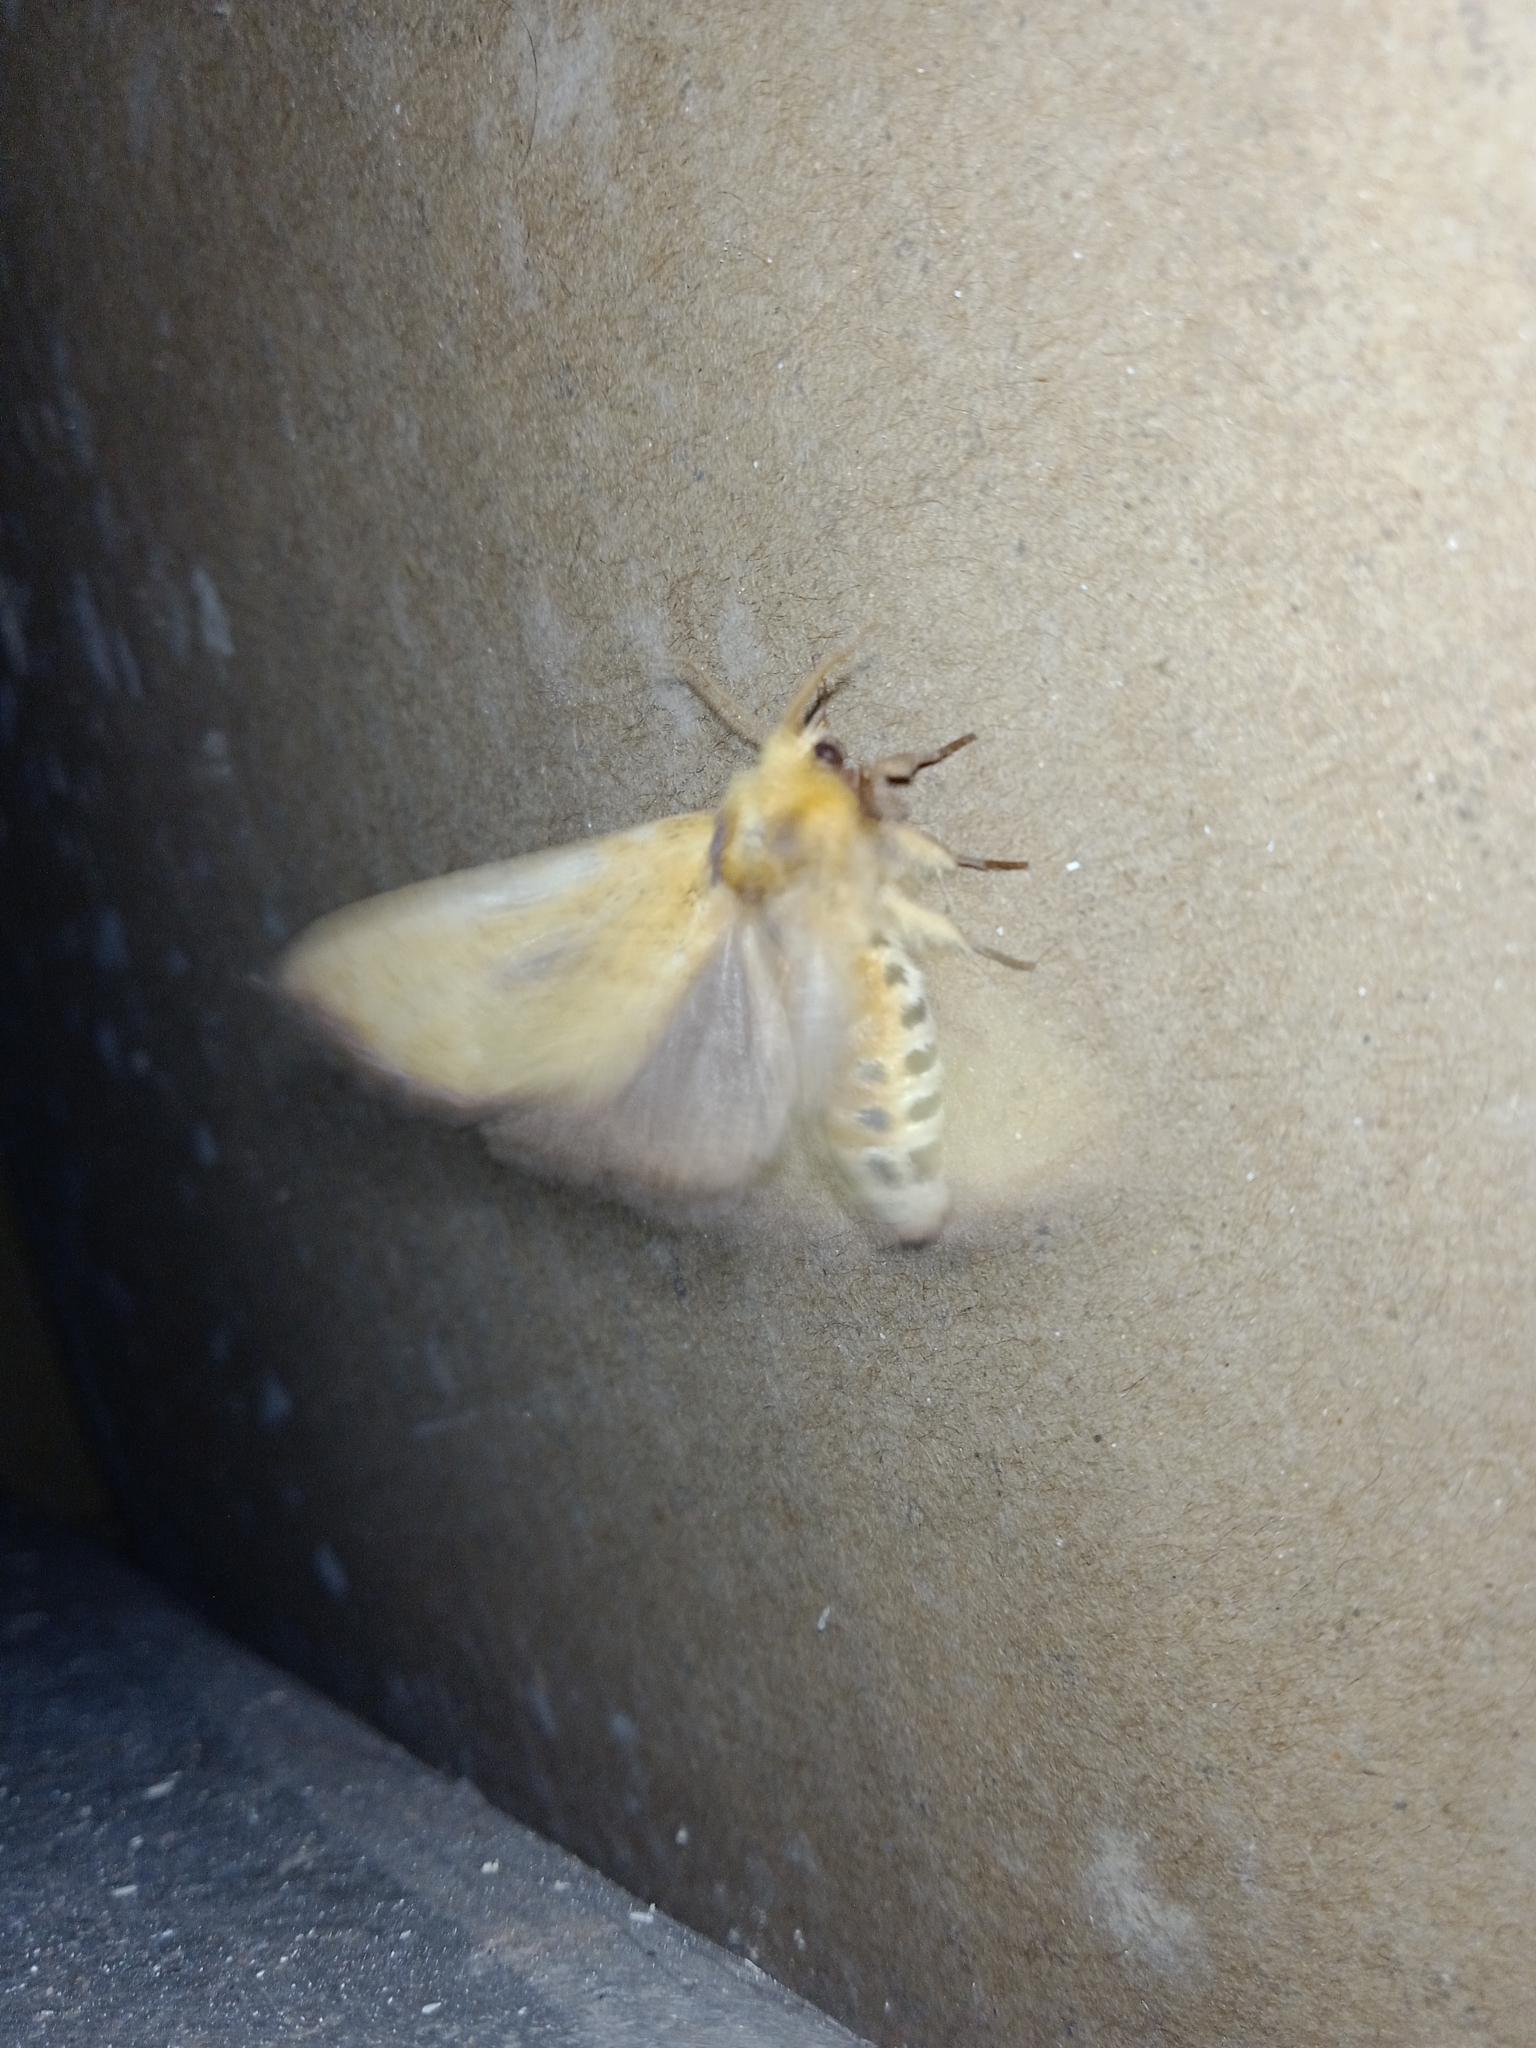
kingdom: Animalia
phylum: Arthropoda
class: Insecta
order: Lepidoptera
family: Notodontidae
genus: Antheua
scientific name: Antheua servula
